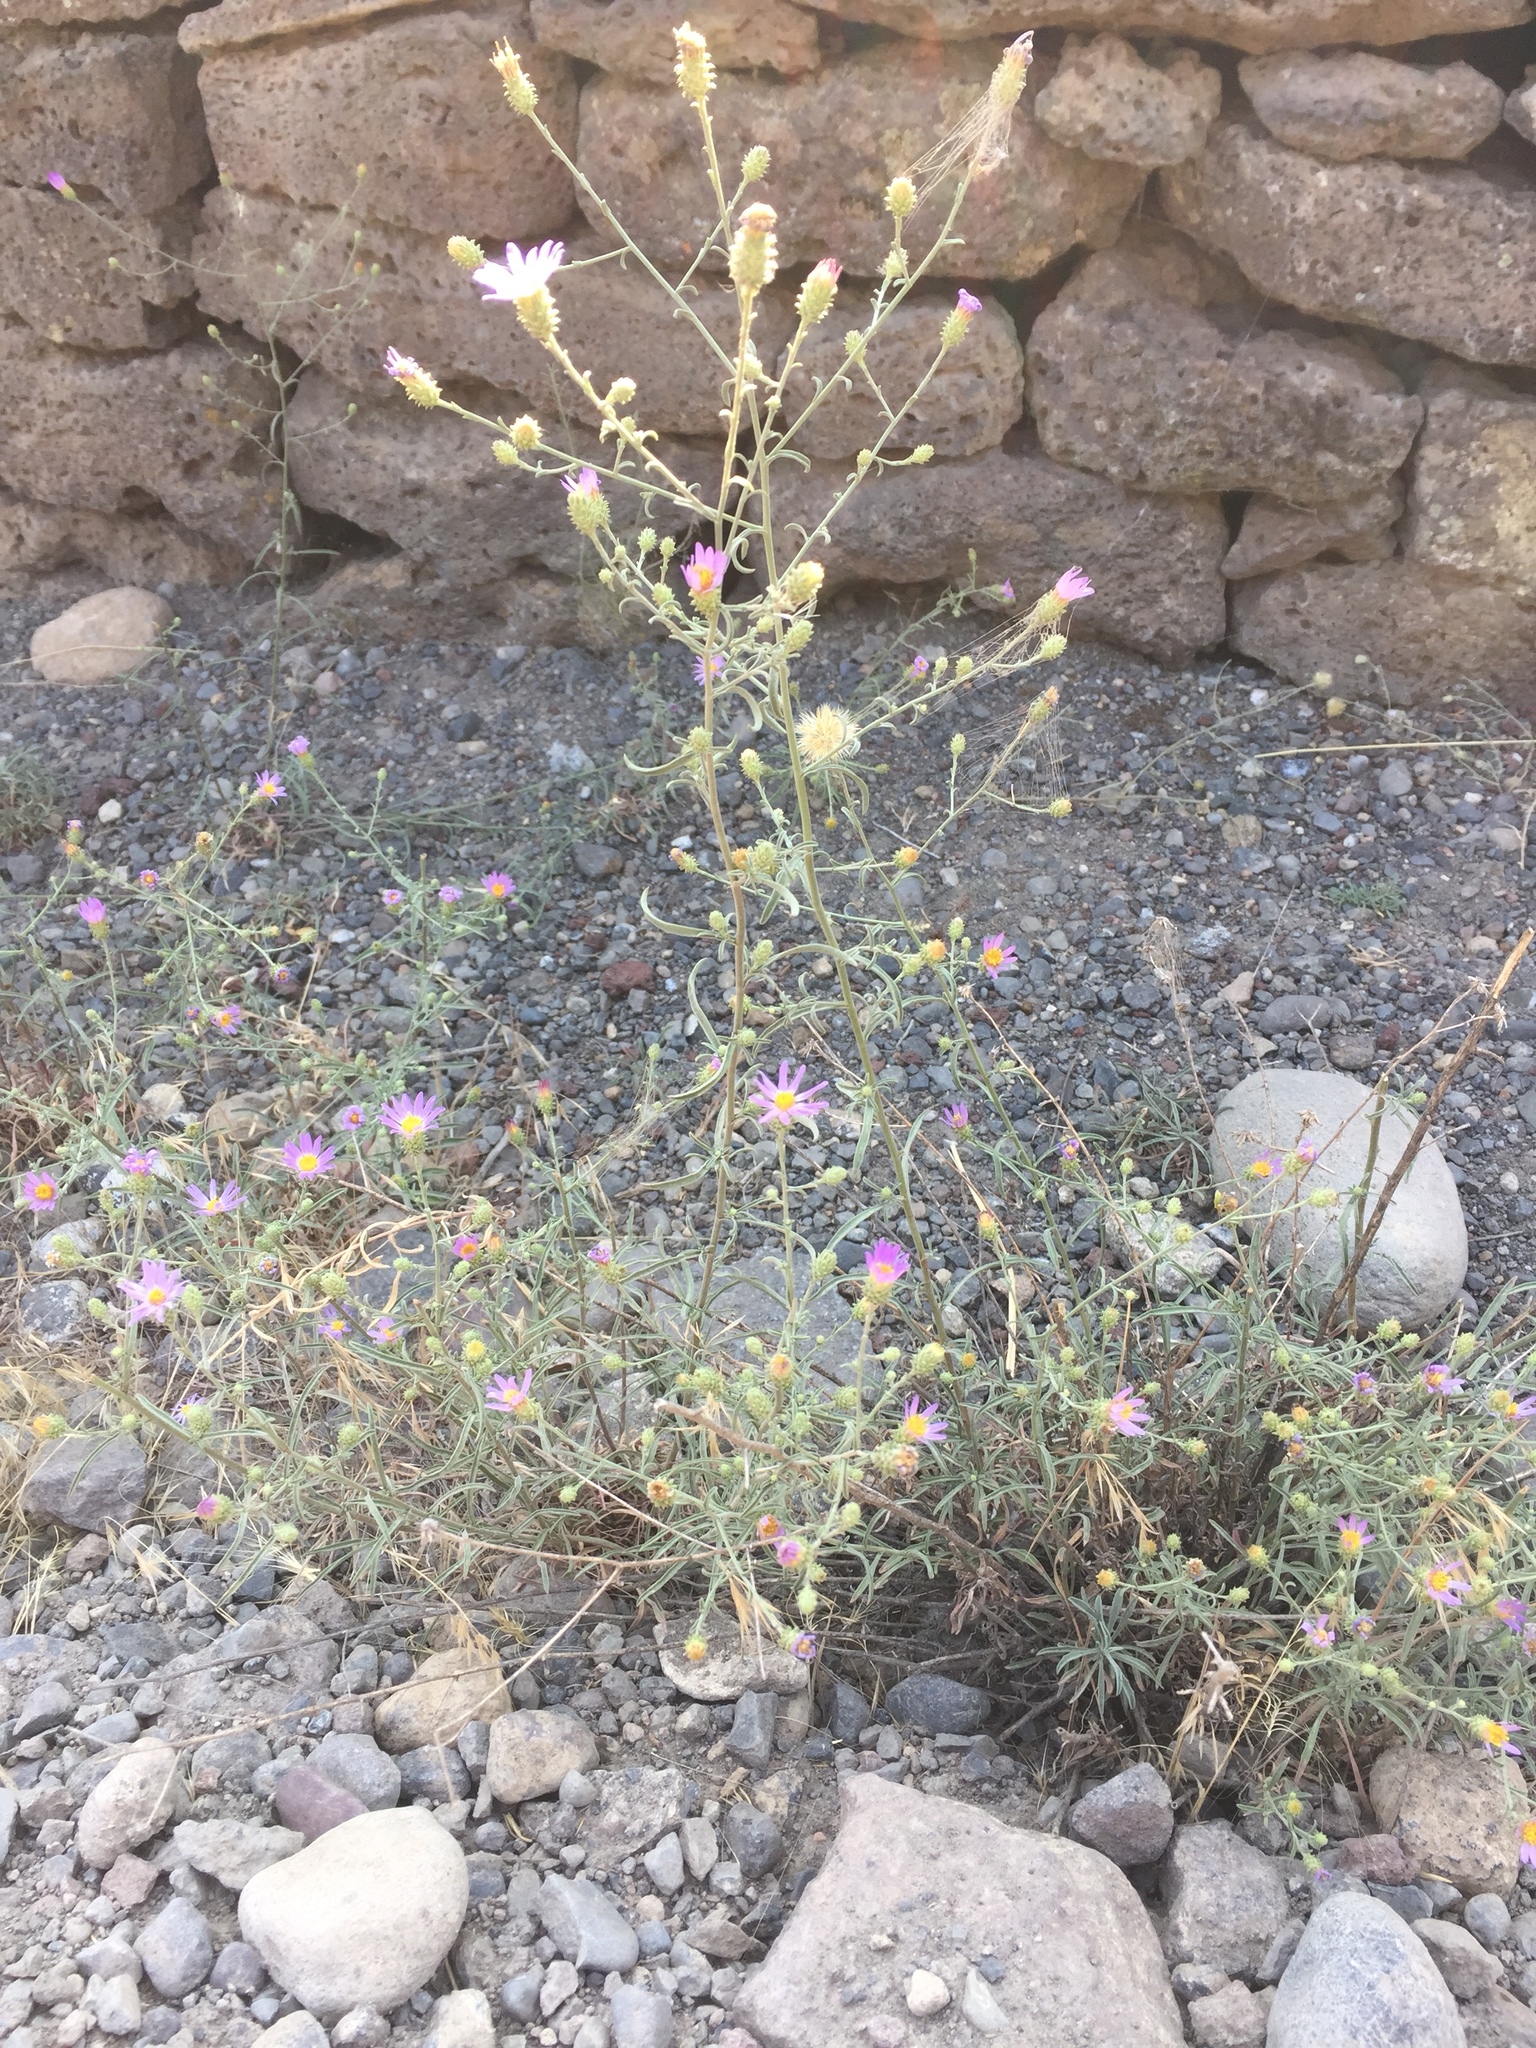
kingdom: Plantae
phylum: Tracheophyta
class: Magnoliopsida
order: Asterales
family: Asteraceae
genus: Dieteria
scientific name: Dieteria canescens
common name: Hoary-aster
